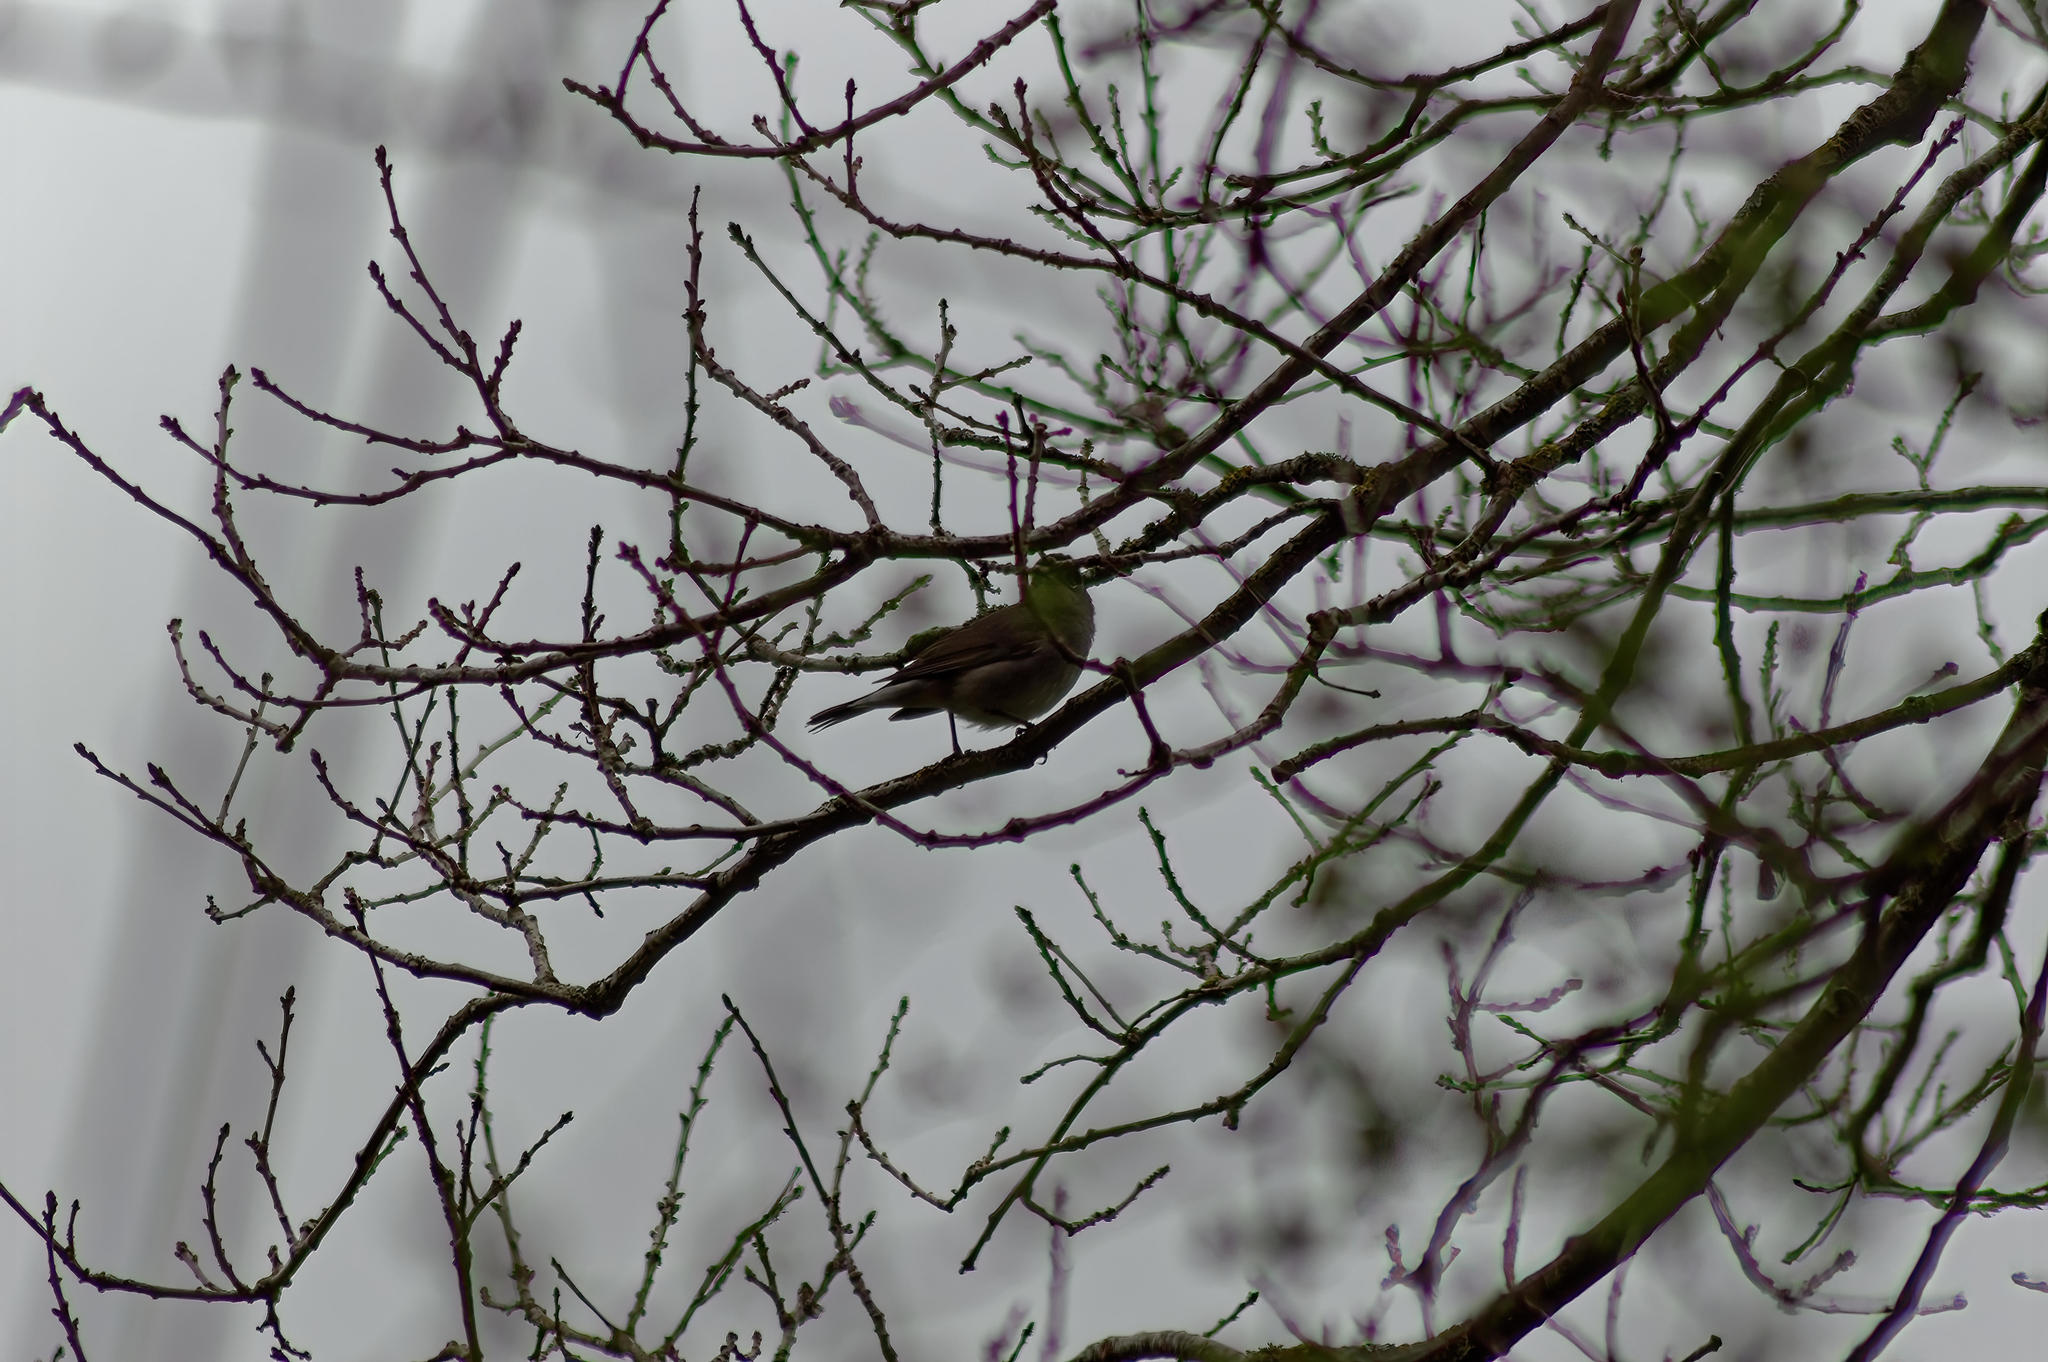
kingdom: Animalia
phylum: Chordata
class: Aves
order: Passeriformes
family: Sylviidae
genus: Sylvia
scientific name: Sylvia atricapilla
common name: Eurasian blackcap
